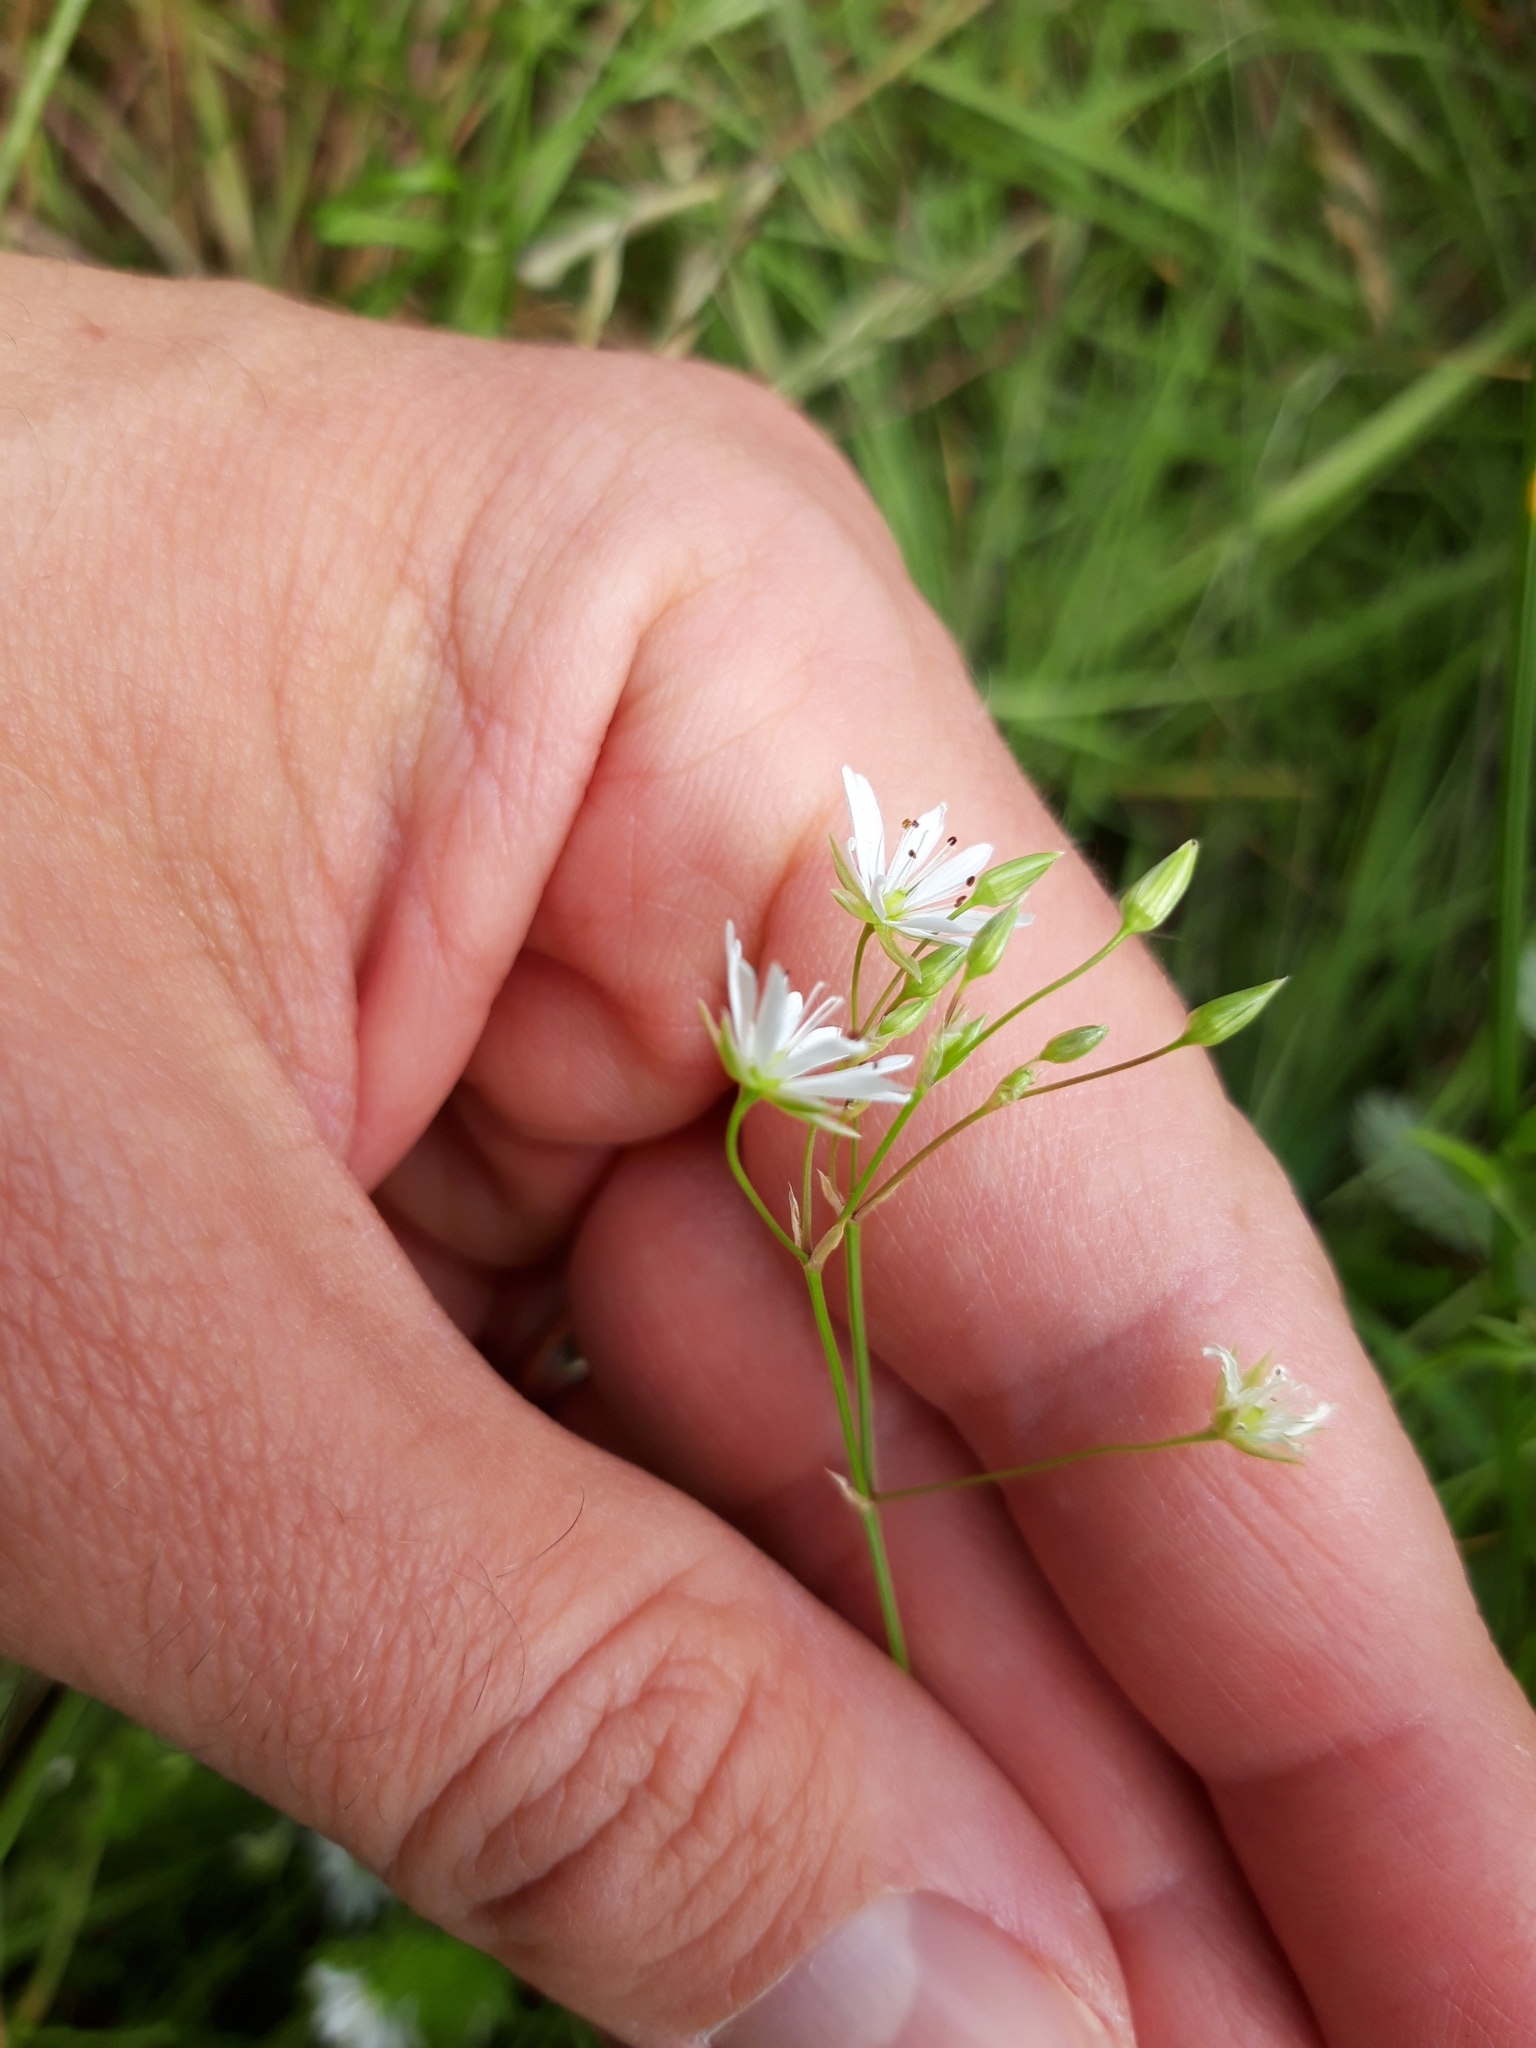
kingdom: Plantae
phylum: Tracheophyta
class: Magnoliopsida
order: Caryophyllales
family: Caryophyllaceae
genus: Stellaria
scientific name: Stellaria graminea
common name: Grass-like starwort
